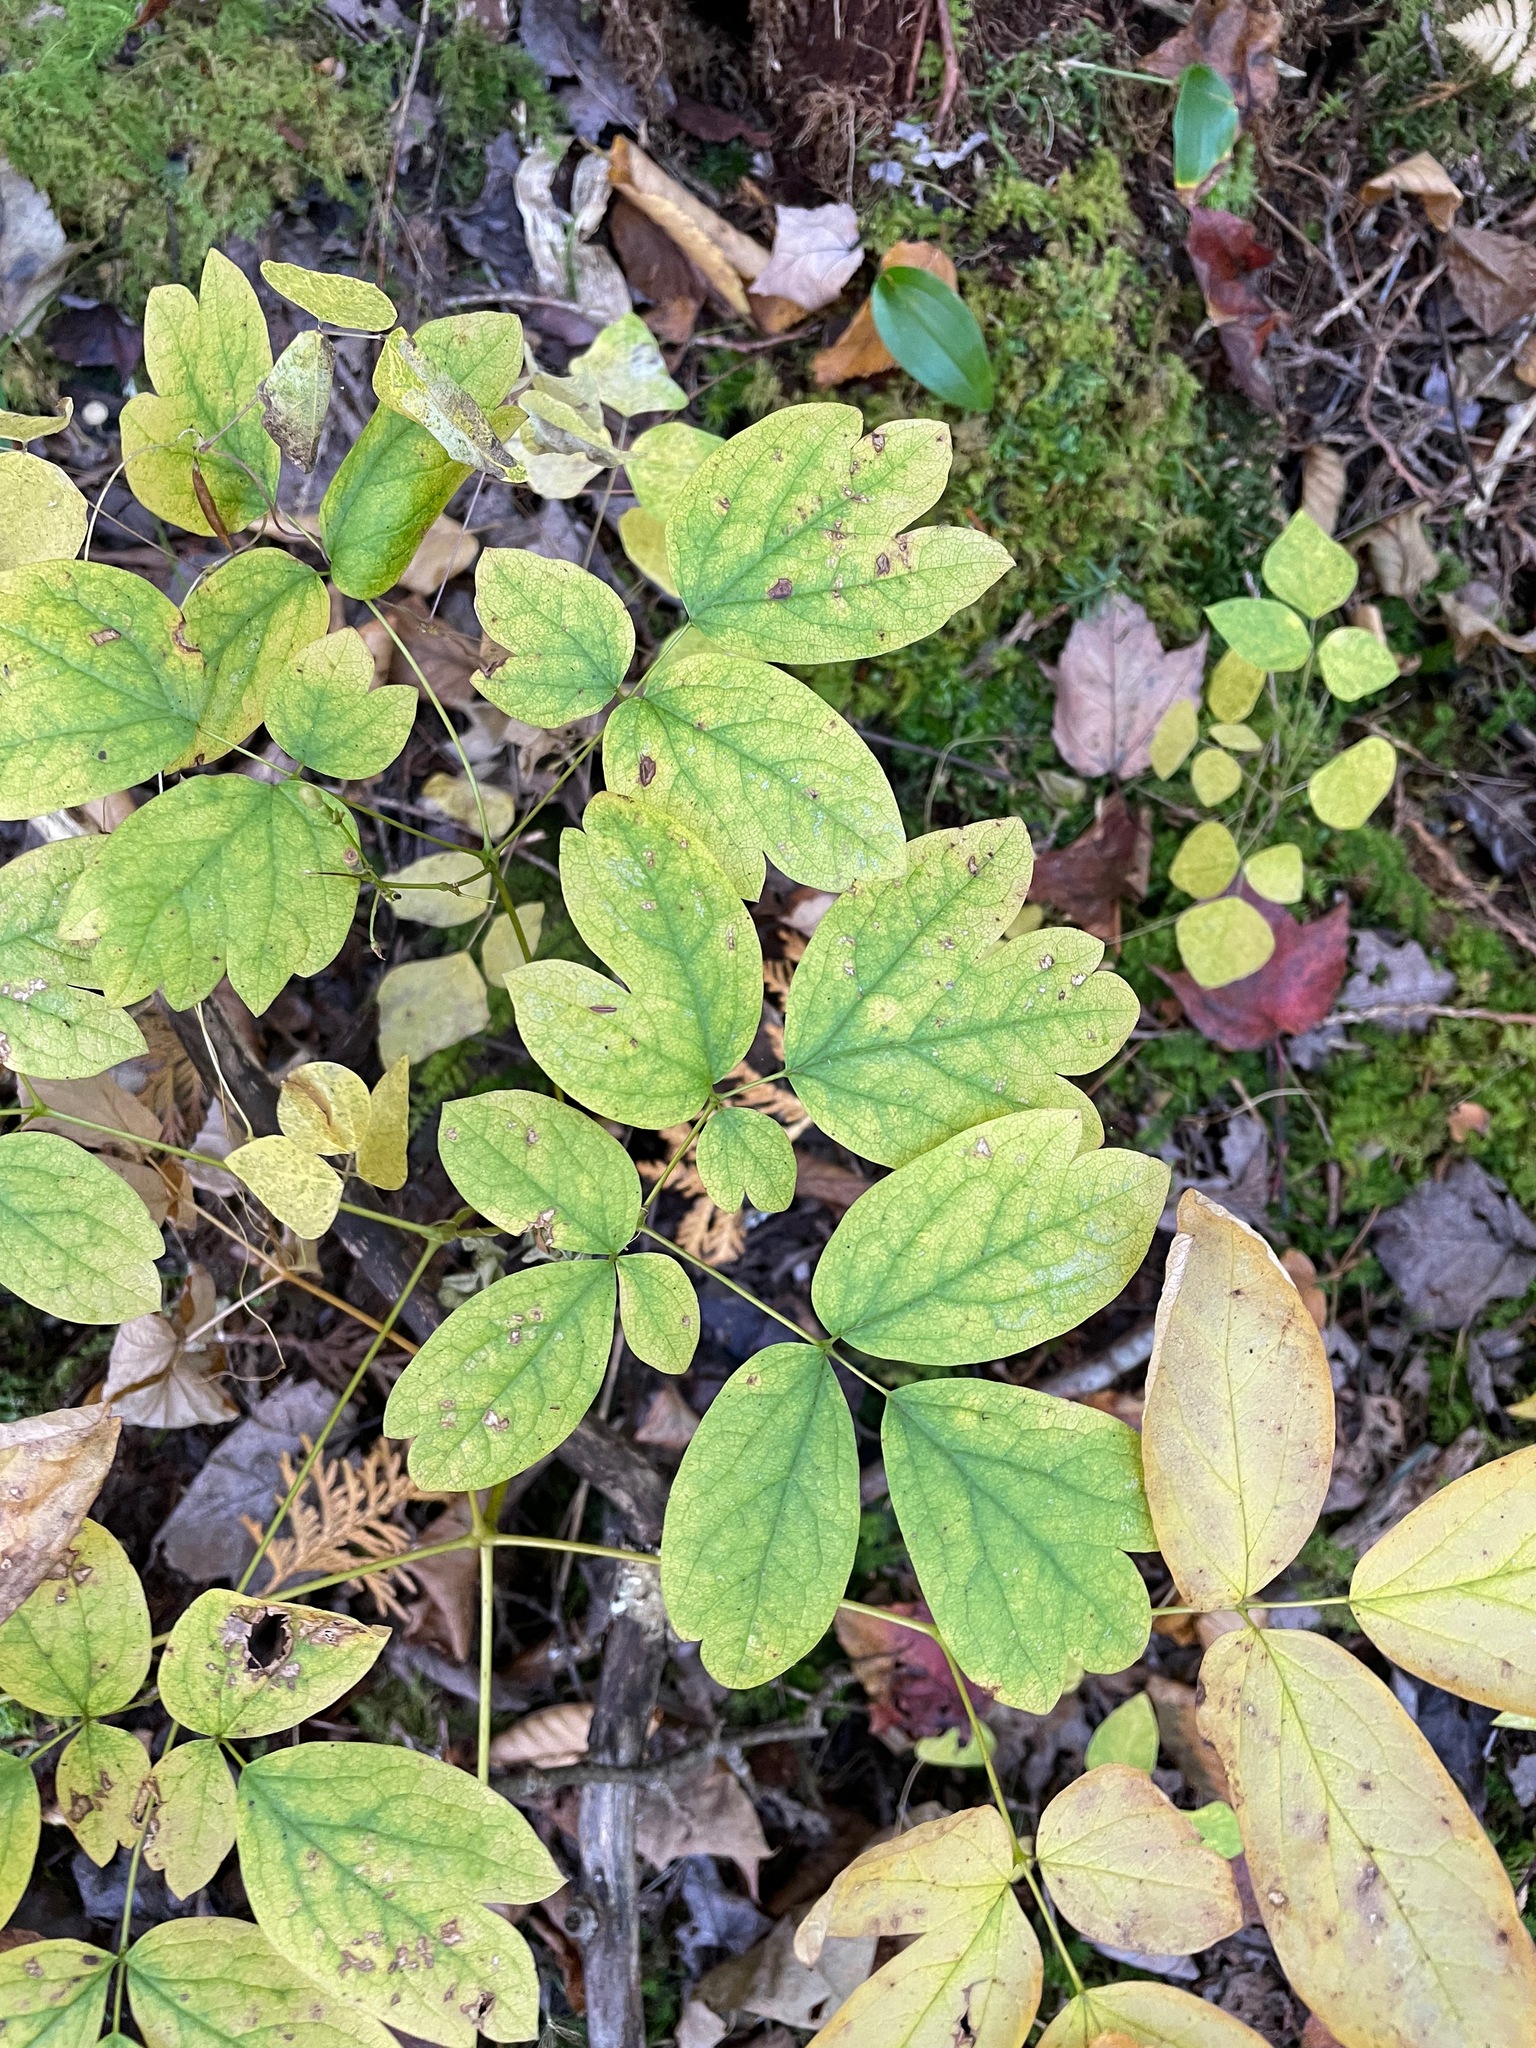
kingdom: Plantae
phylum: Tracheophyta
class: Magnoliopsida
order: Ranunculales
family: Berberidaceae
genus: Caulophyllum
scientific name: Caulophyllum
